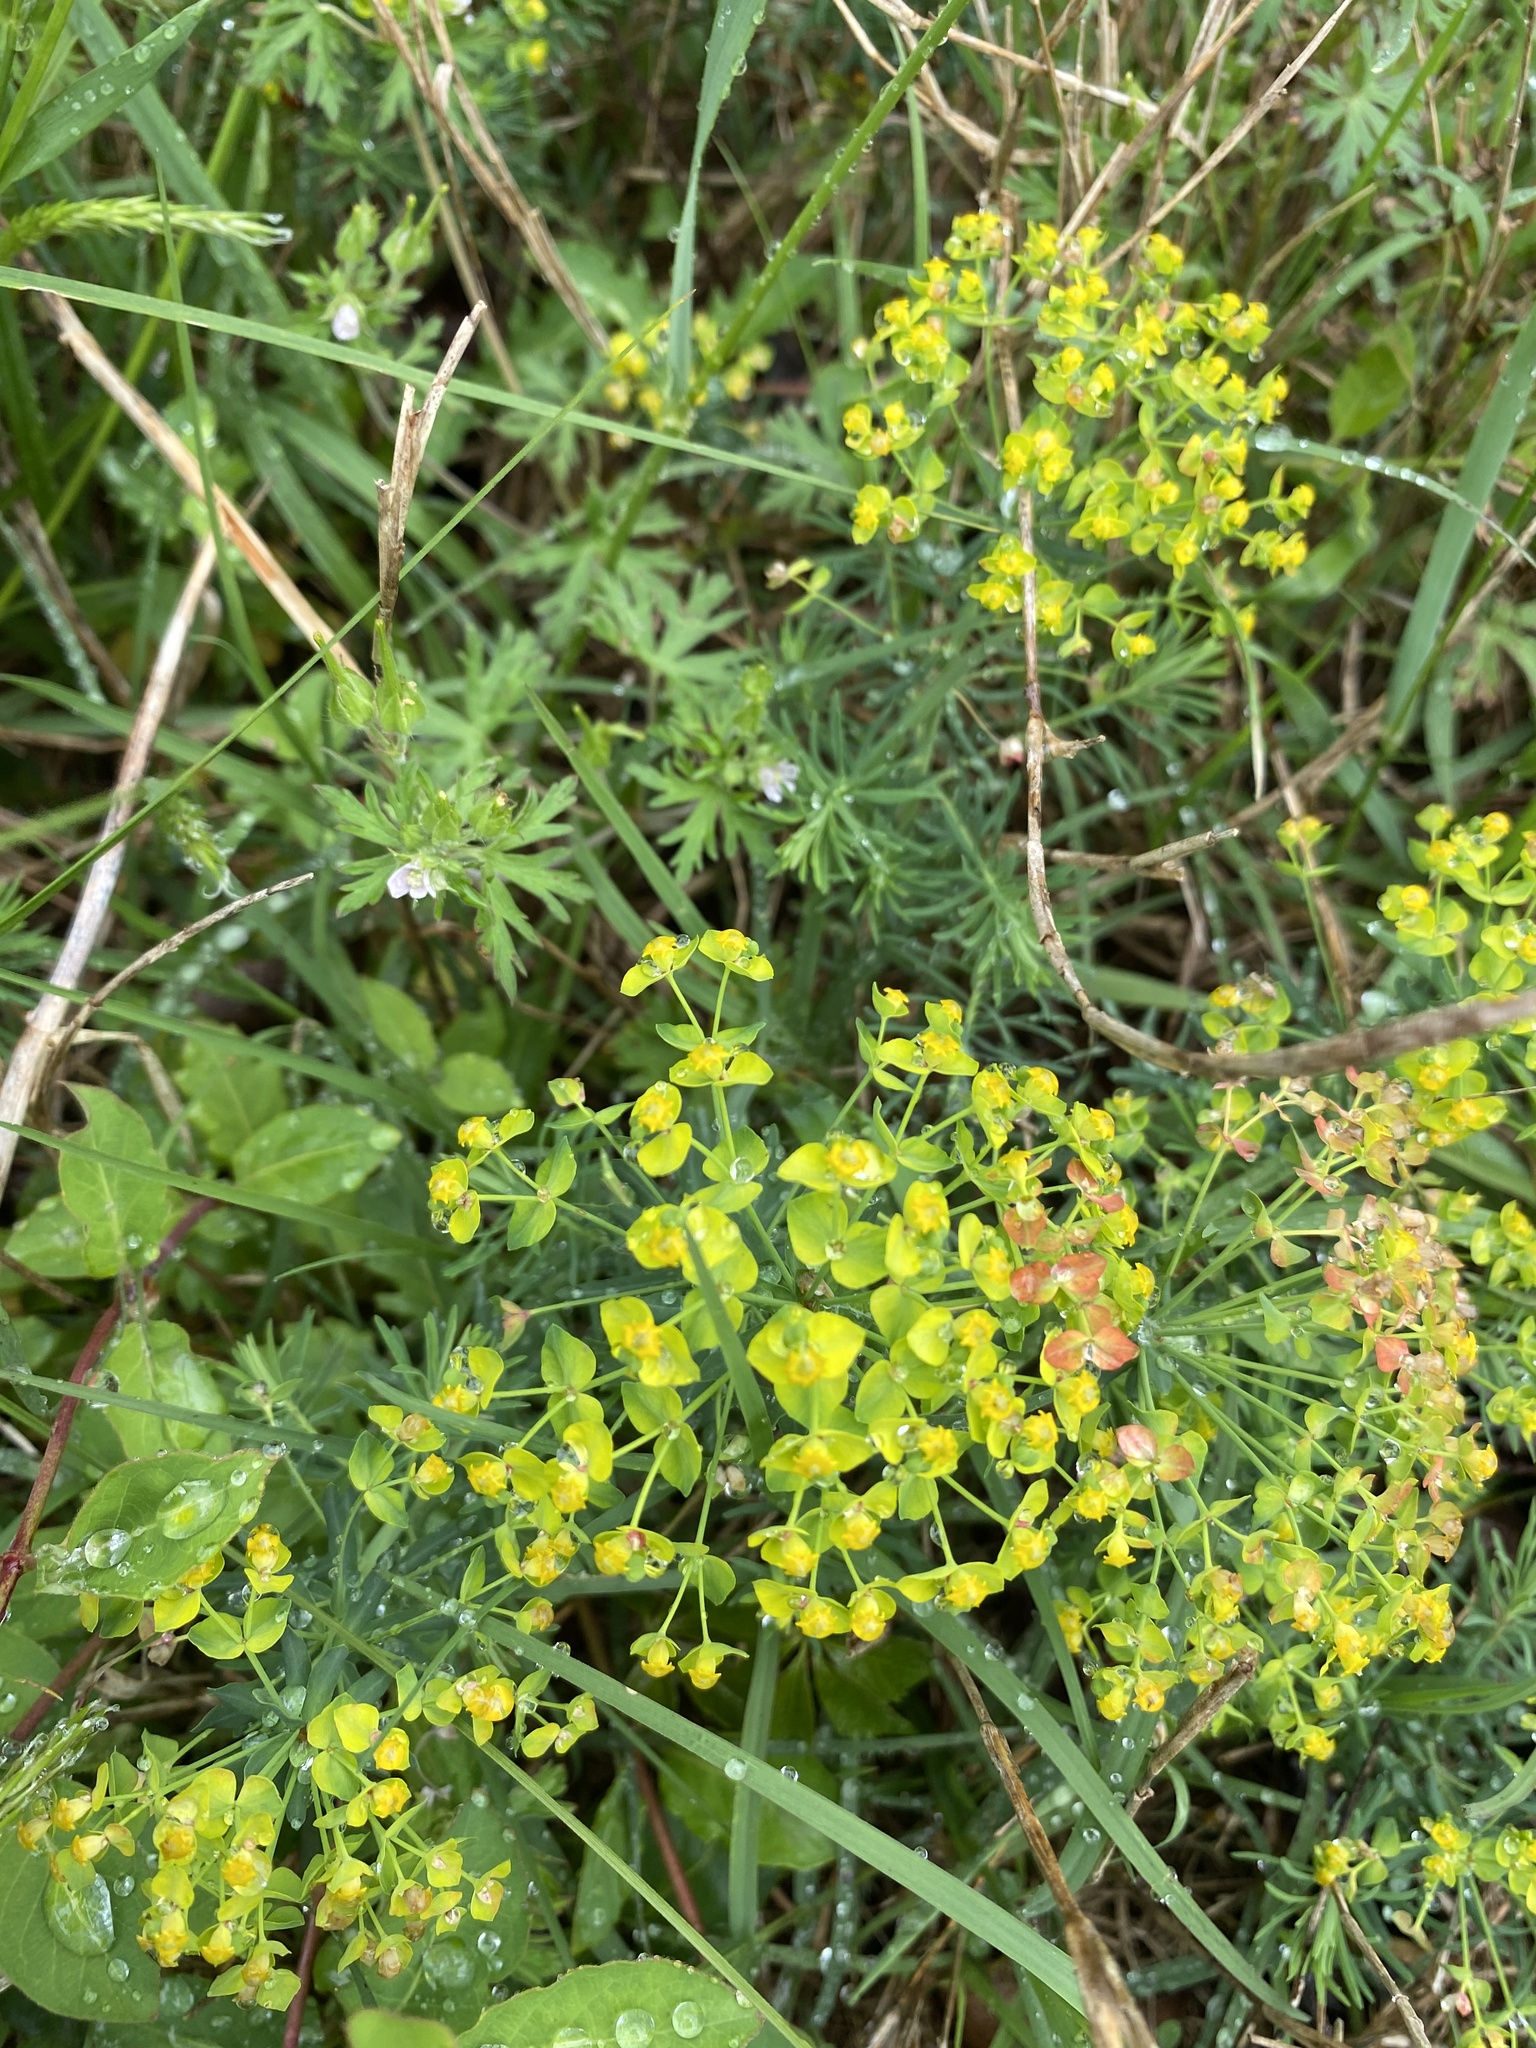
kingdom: Plantae
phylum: Tracheophyta
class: Magnoliopsida
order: Malpighiales
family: Euphorbiaceae
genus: Euphorbia
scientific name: Euphorbia cyparissias
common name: Cypress spurge
